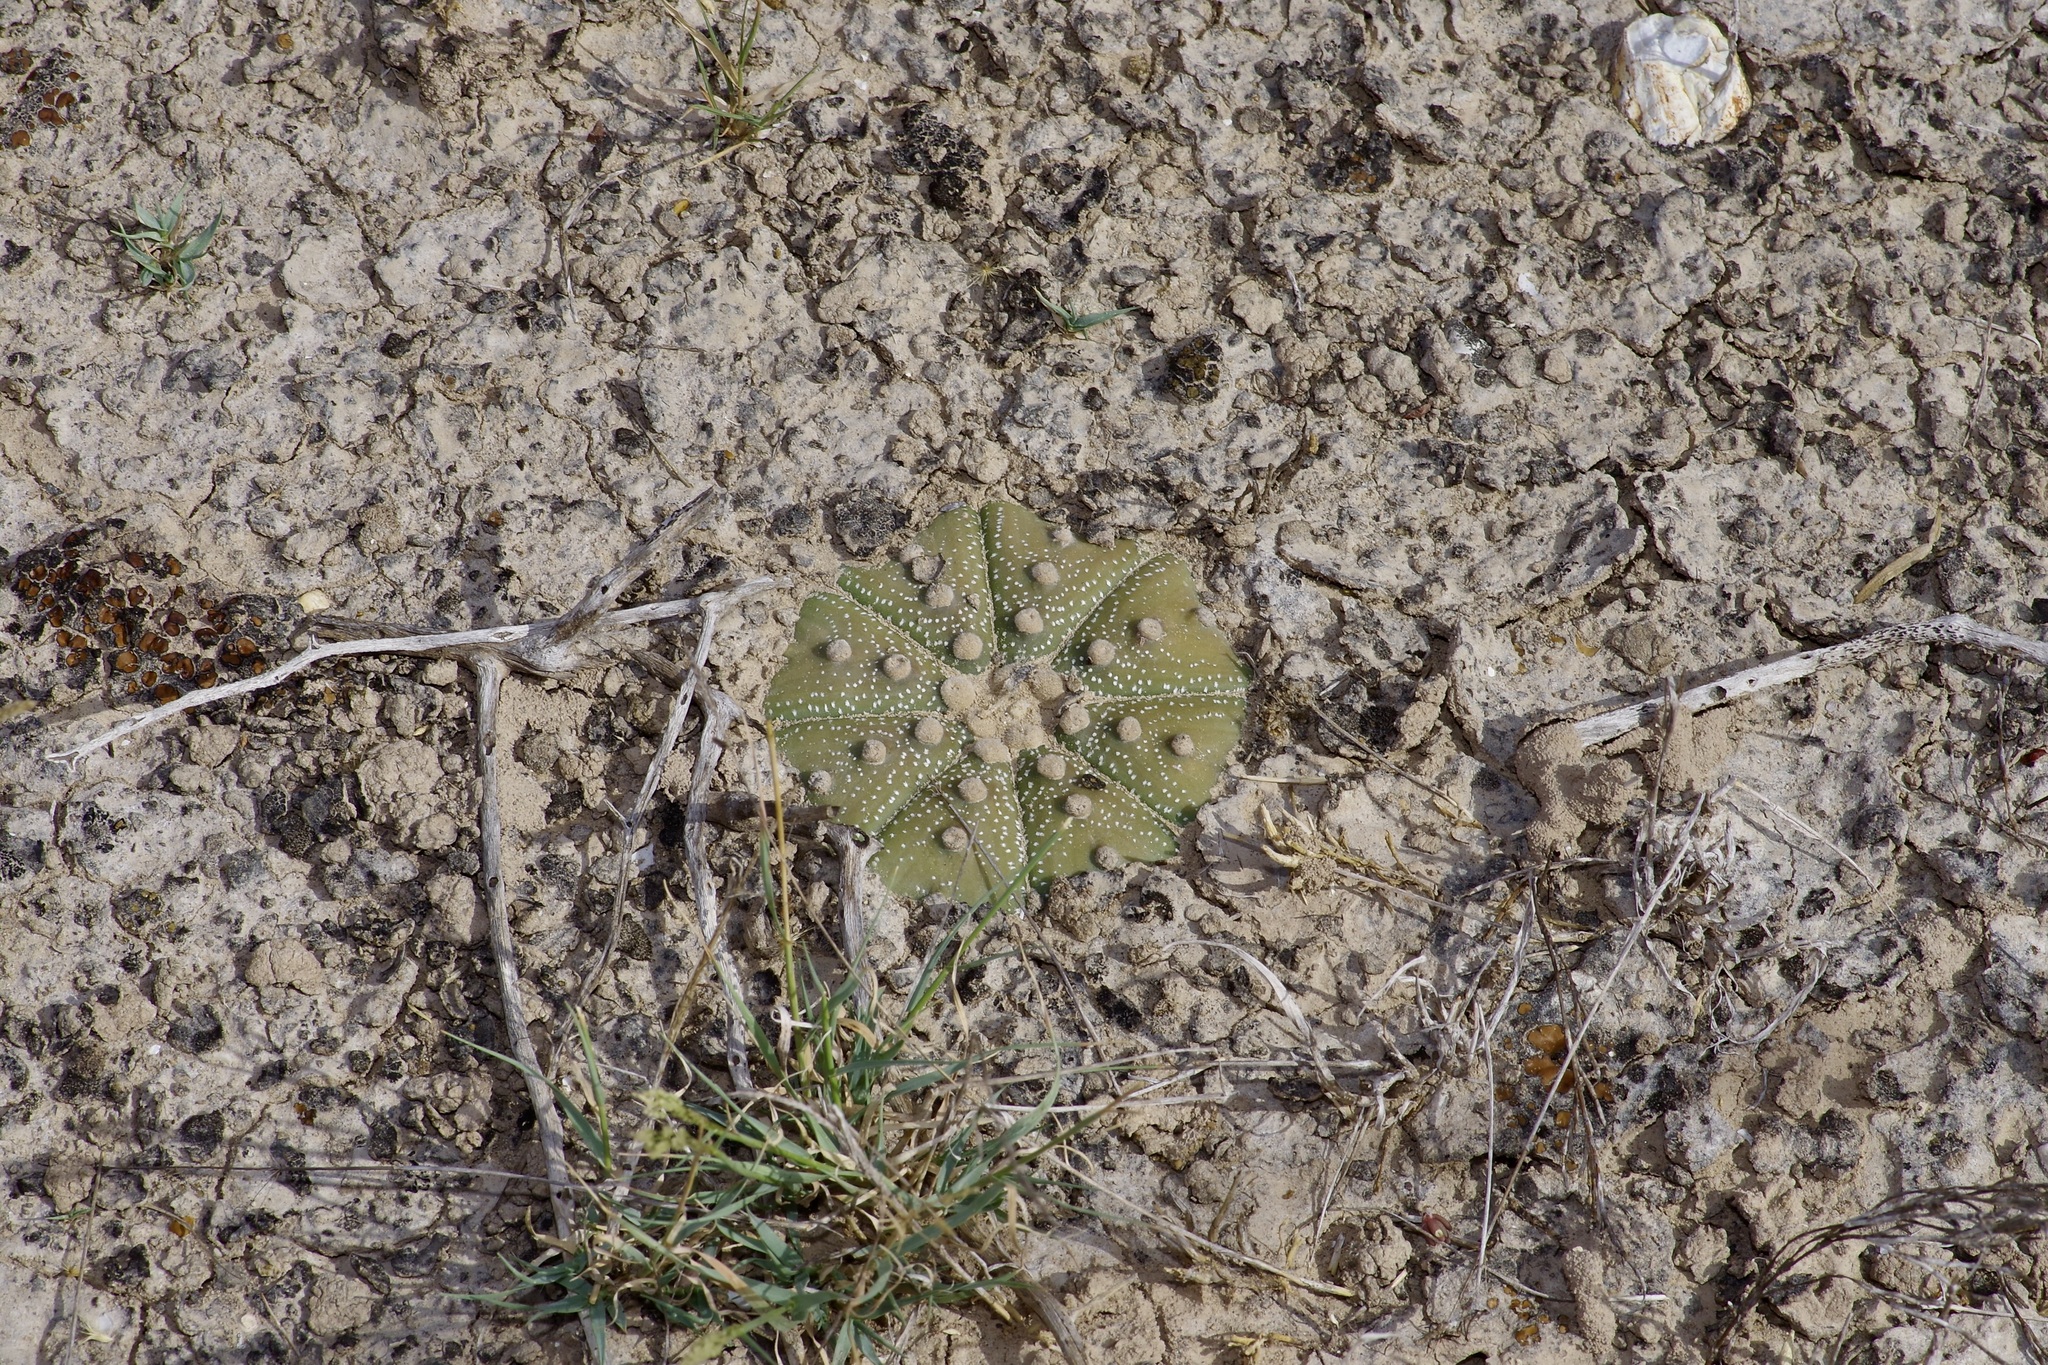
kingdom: Plantae
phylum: Tracheophyta
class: Magnoliopsida
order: Caryophyllales
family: Cactaceae
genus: Astrophytum
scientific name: Astrophytum asterias
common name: Star cactus
